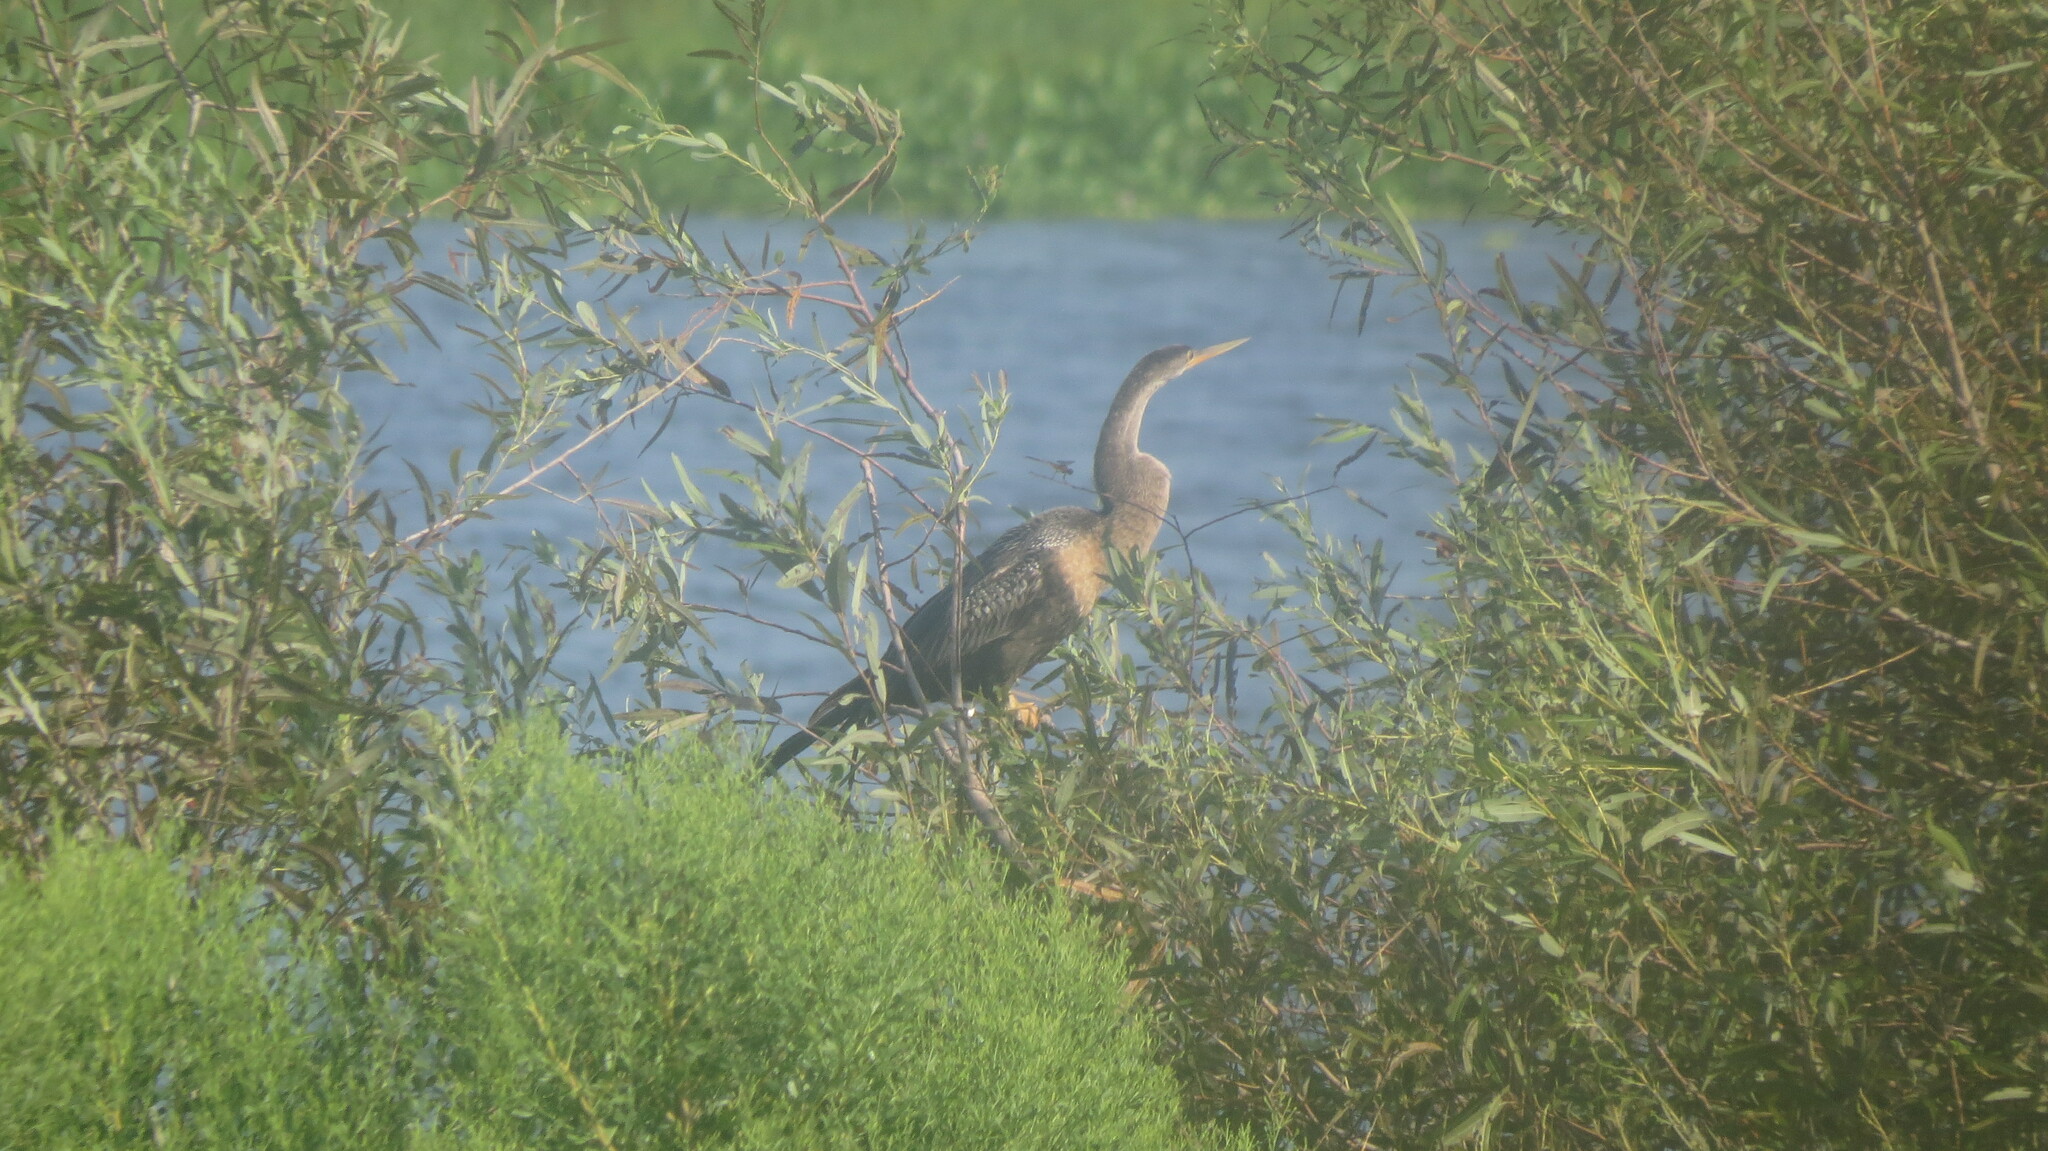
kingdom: Animalia
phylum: Chordata
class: Aves
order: Suliformes
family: Anhingidae
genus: Anhinga
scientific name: Anhinga anhinga
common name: Anhinga
